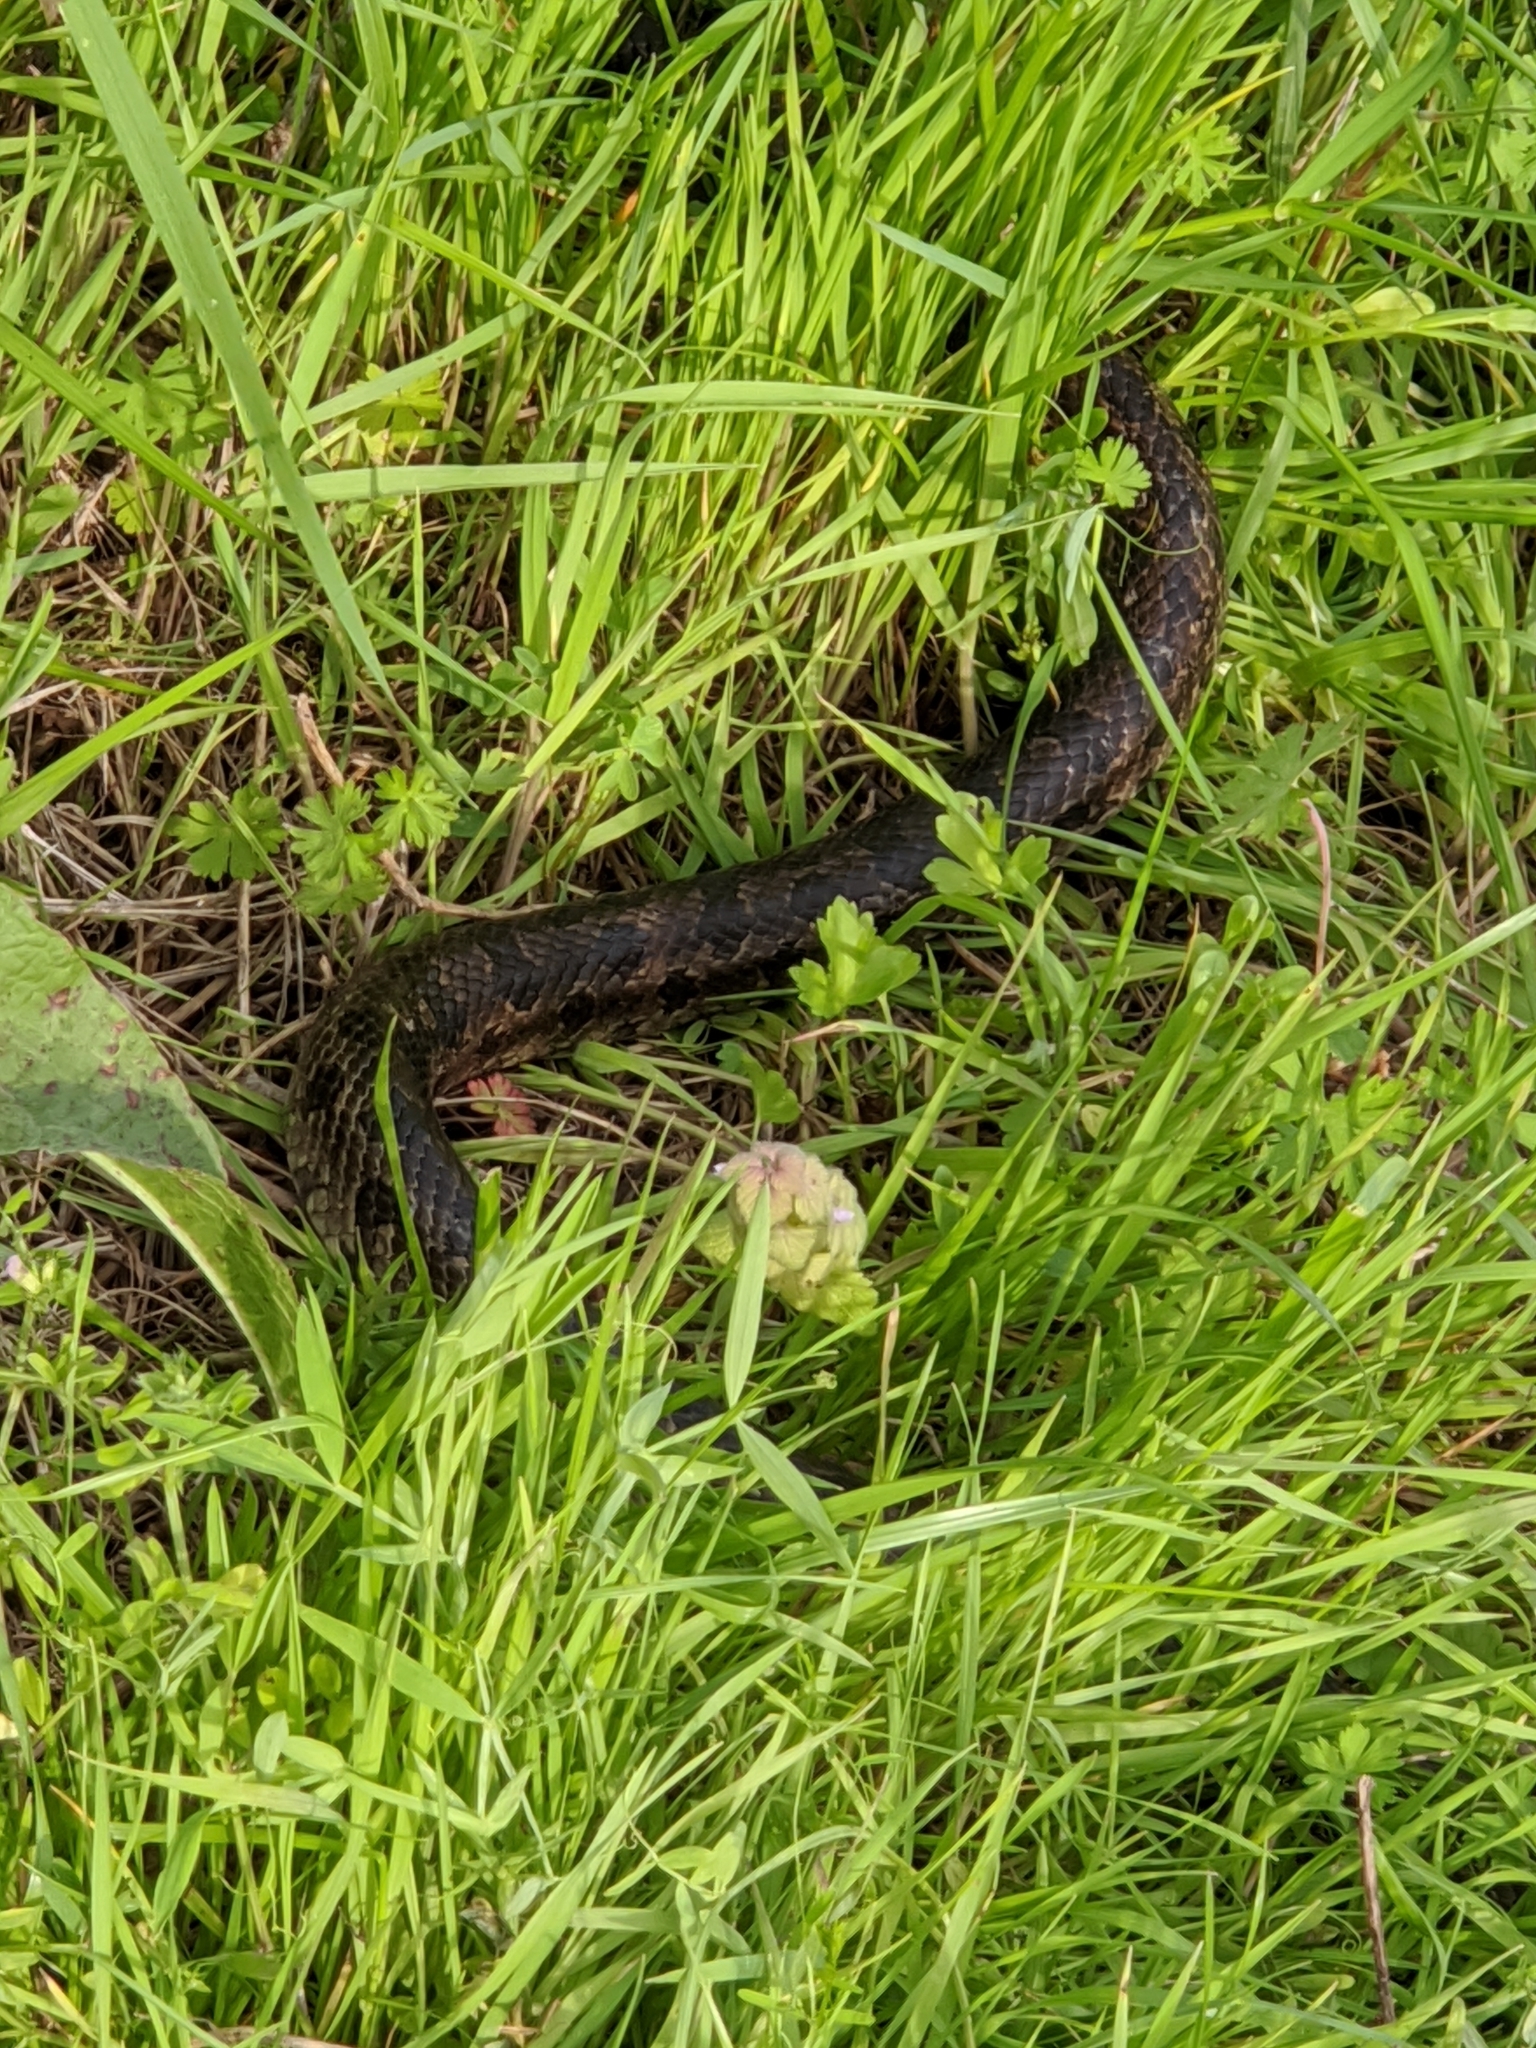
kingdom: Animalia
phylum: Chordata
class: Squamata
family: Colubridae
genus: Lampropeltis
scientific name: Lampropeltis calligaster
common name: Prairie kingsnake
